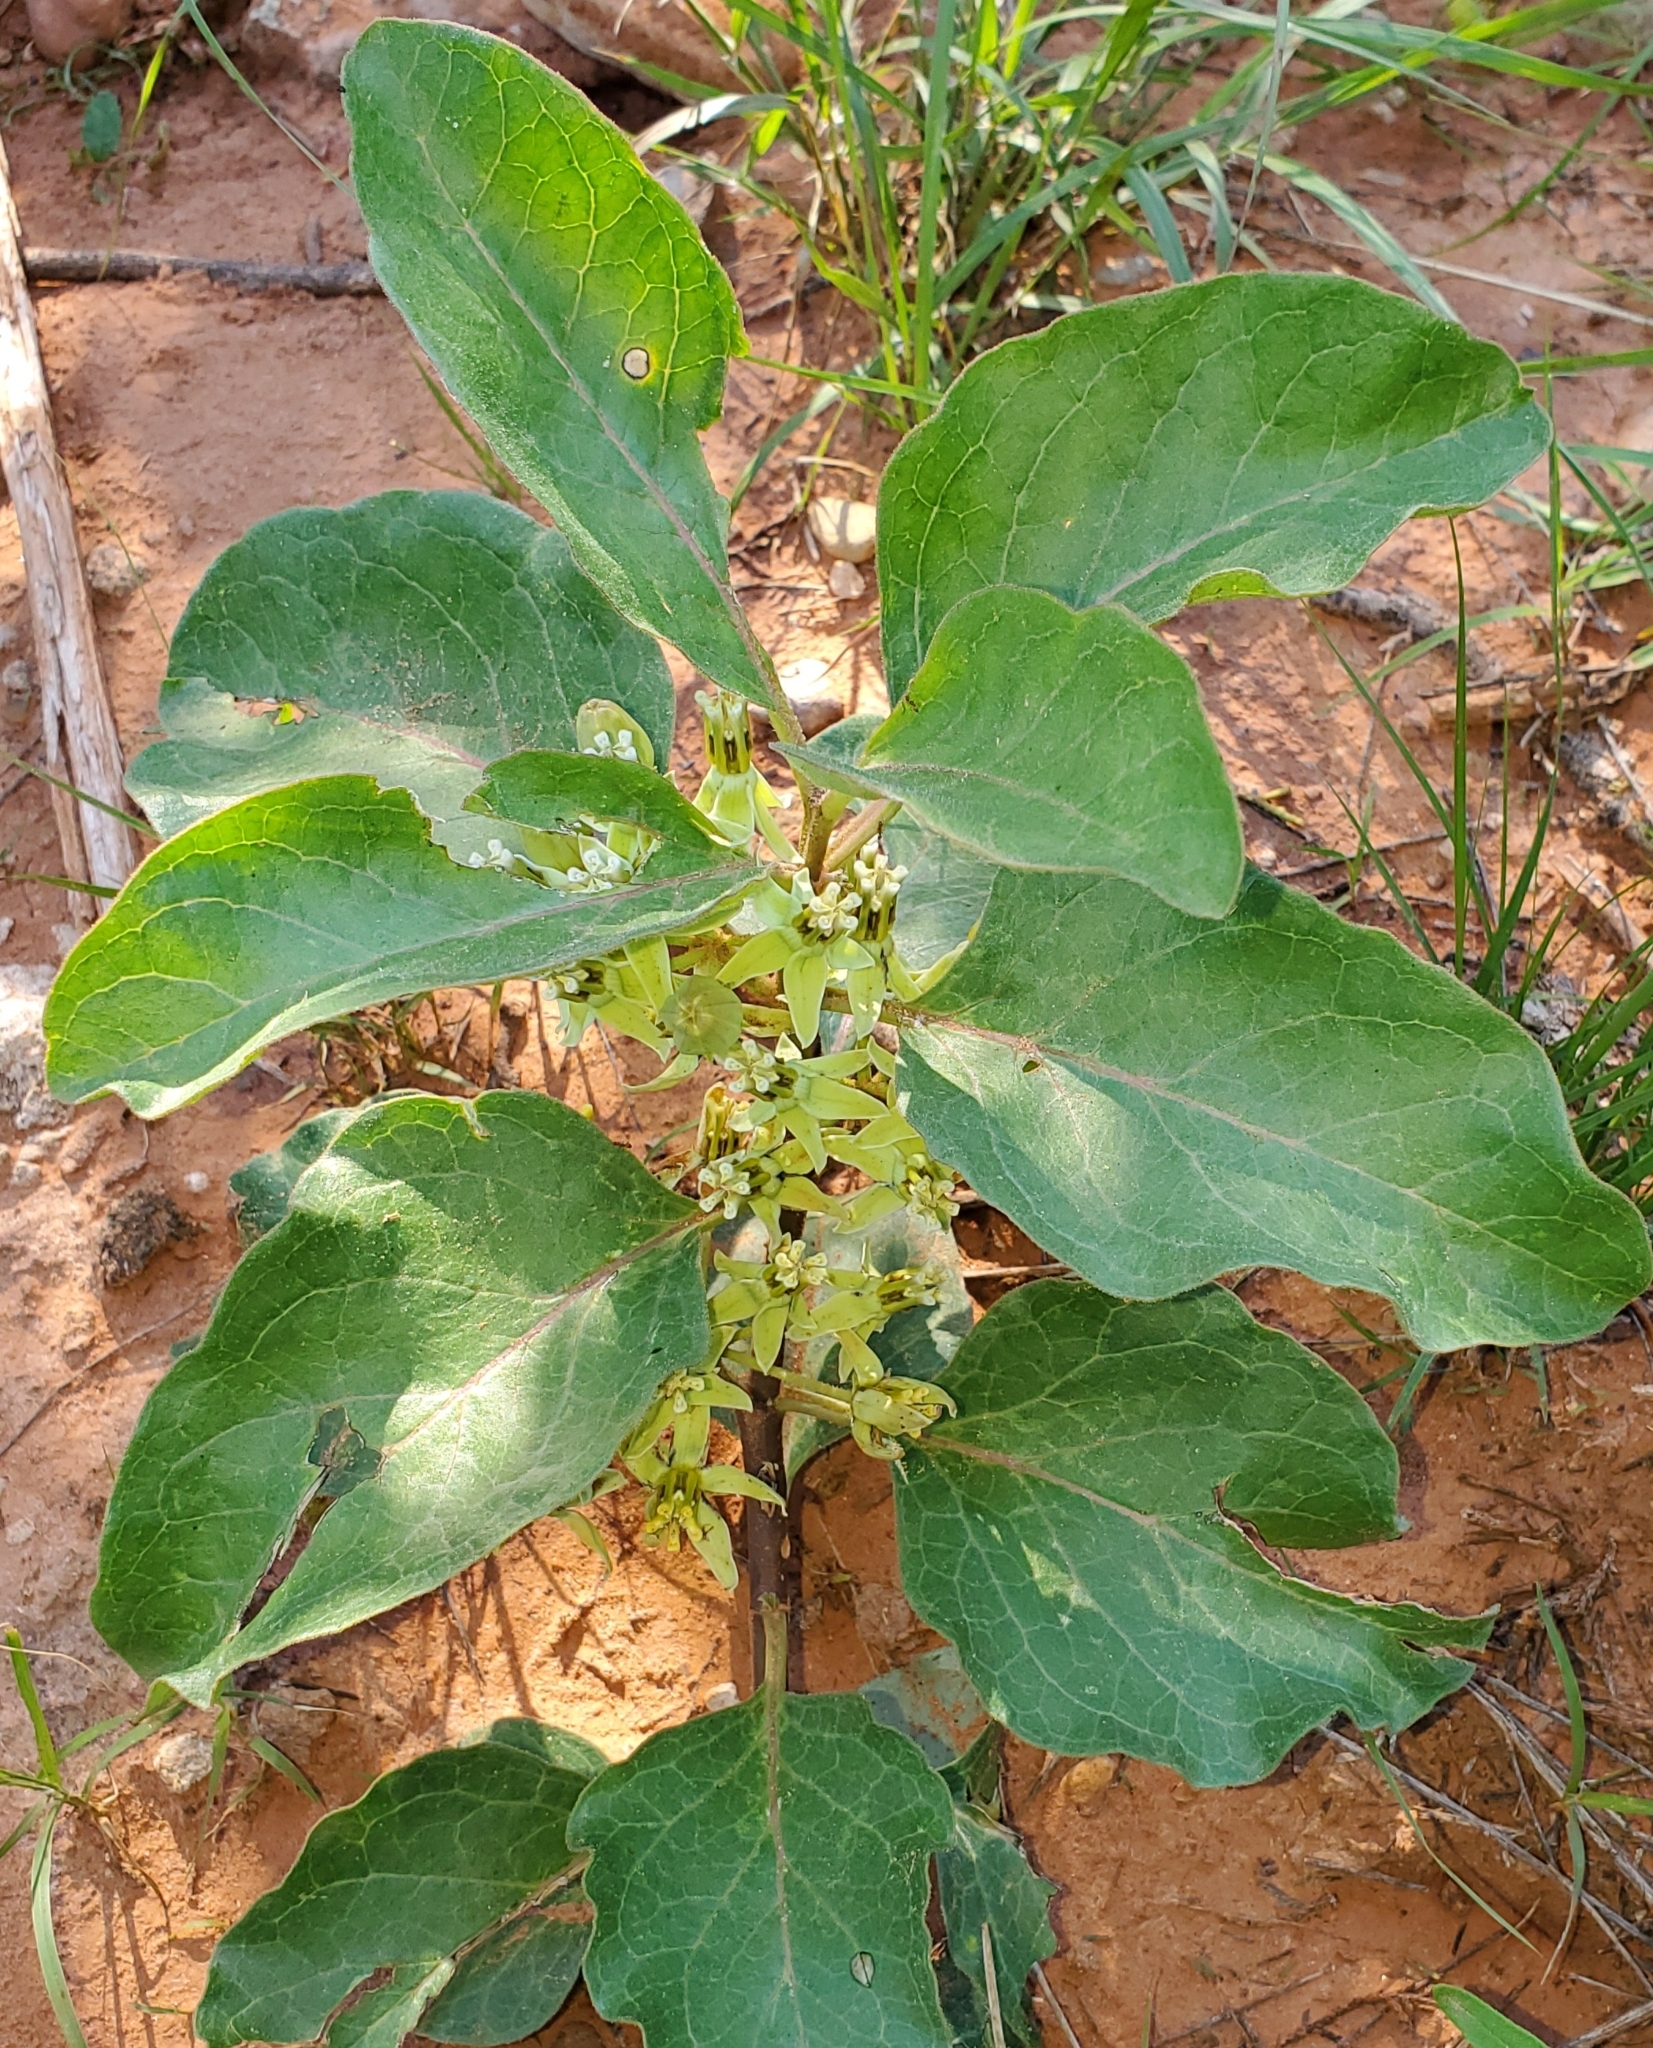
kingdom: Plantae
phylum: Tracheophyta
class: Magnoliopsida
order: Gentianales
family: Apocynaceae
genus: Asclepias
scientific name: Asclepias oenotheroides
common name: Zizotes milkweed
